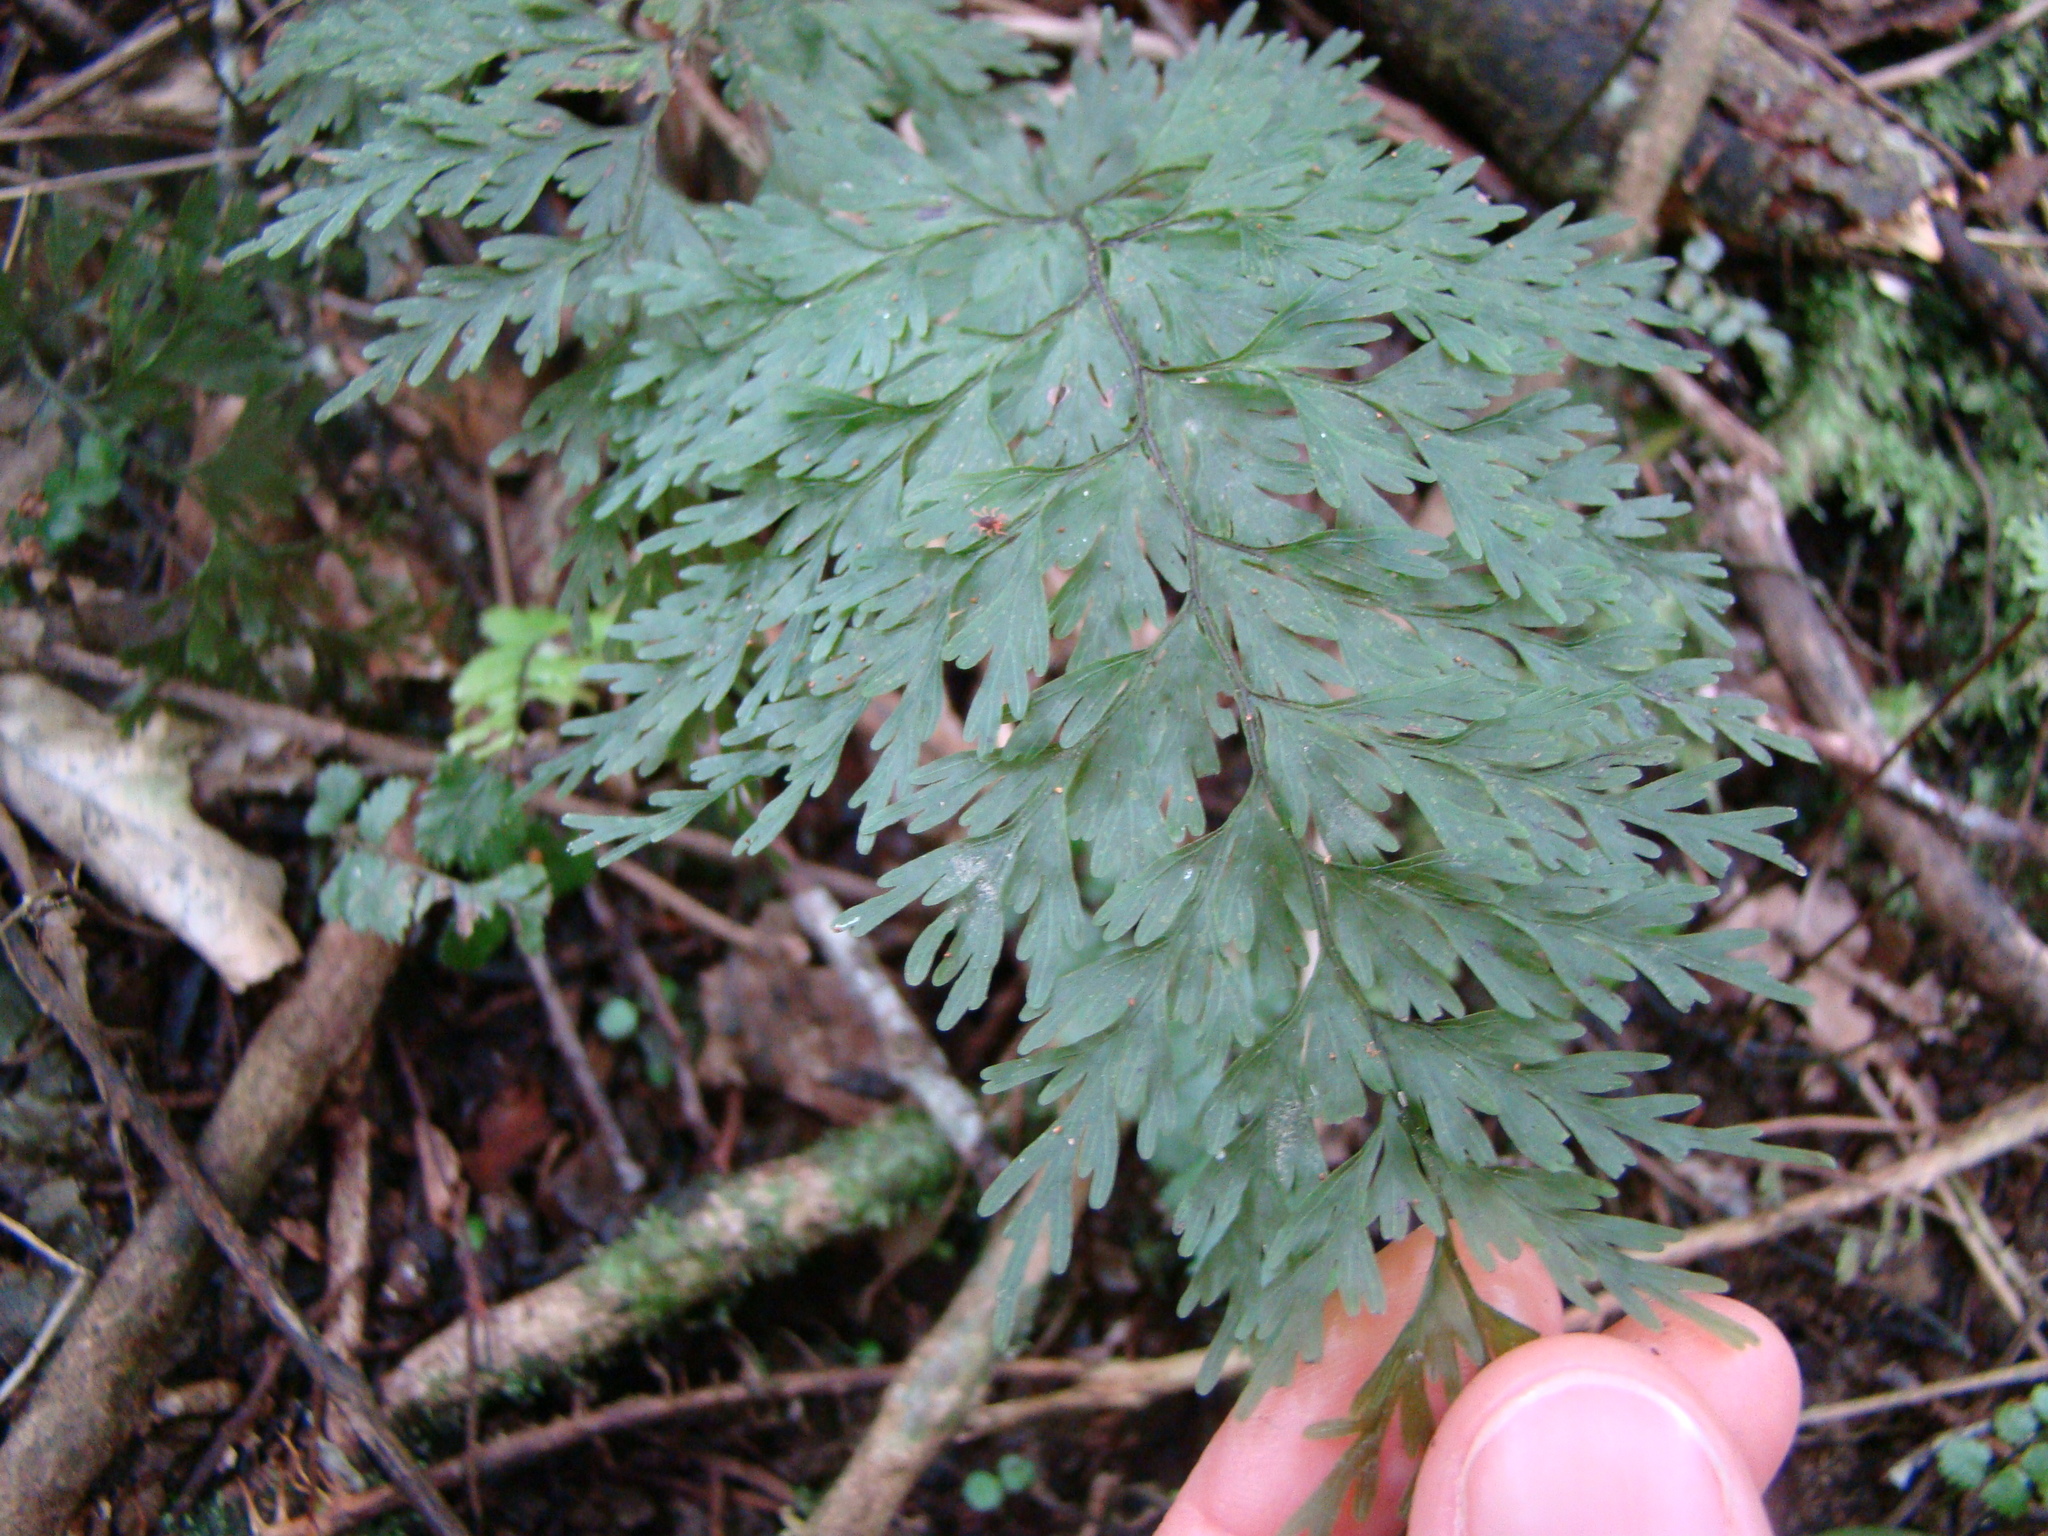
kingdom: Plantae
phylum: Tracheophyta
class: Polypodiopsida
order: Hymenophyllales
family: Hymenophyllaceae
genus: Hymenophyllum
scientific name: Hymenophyllum demissum
